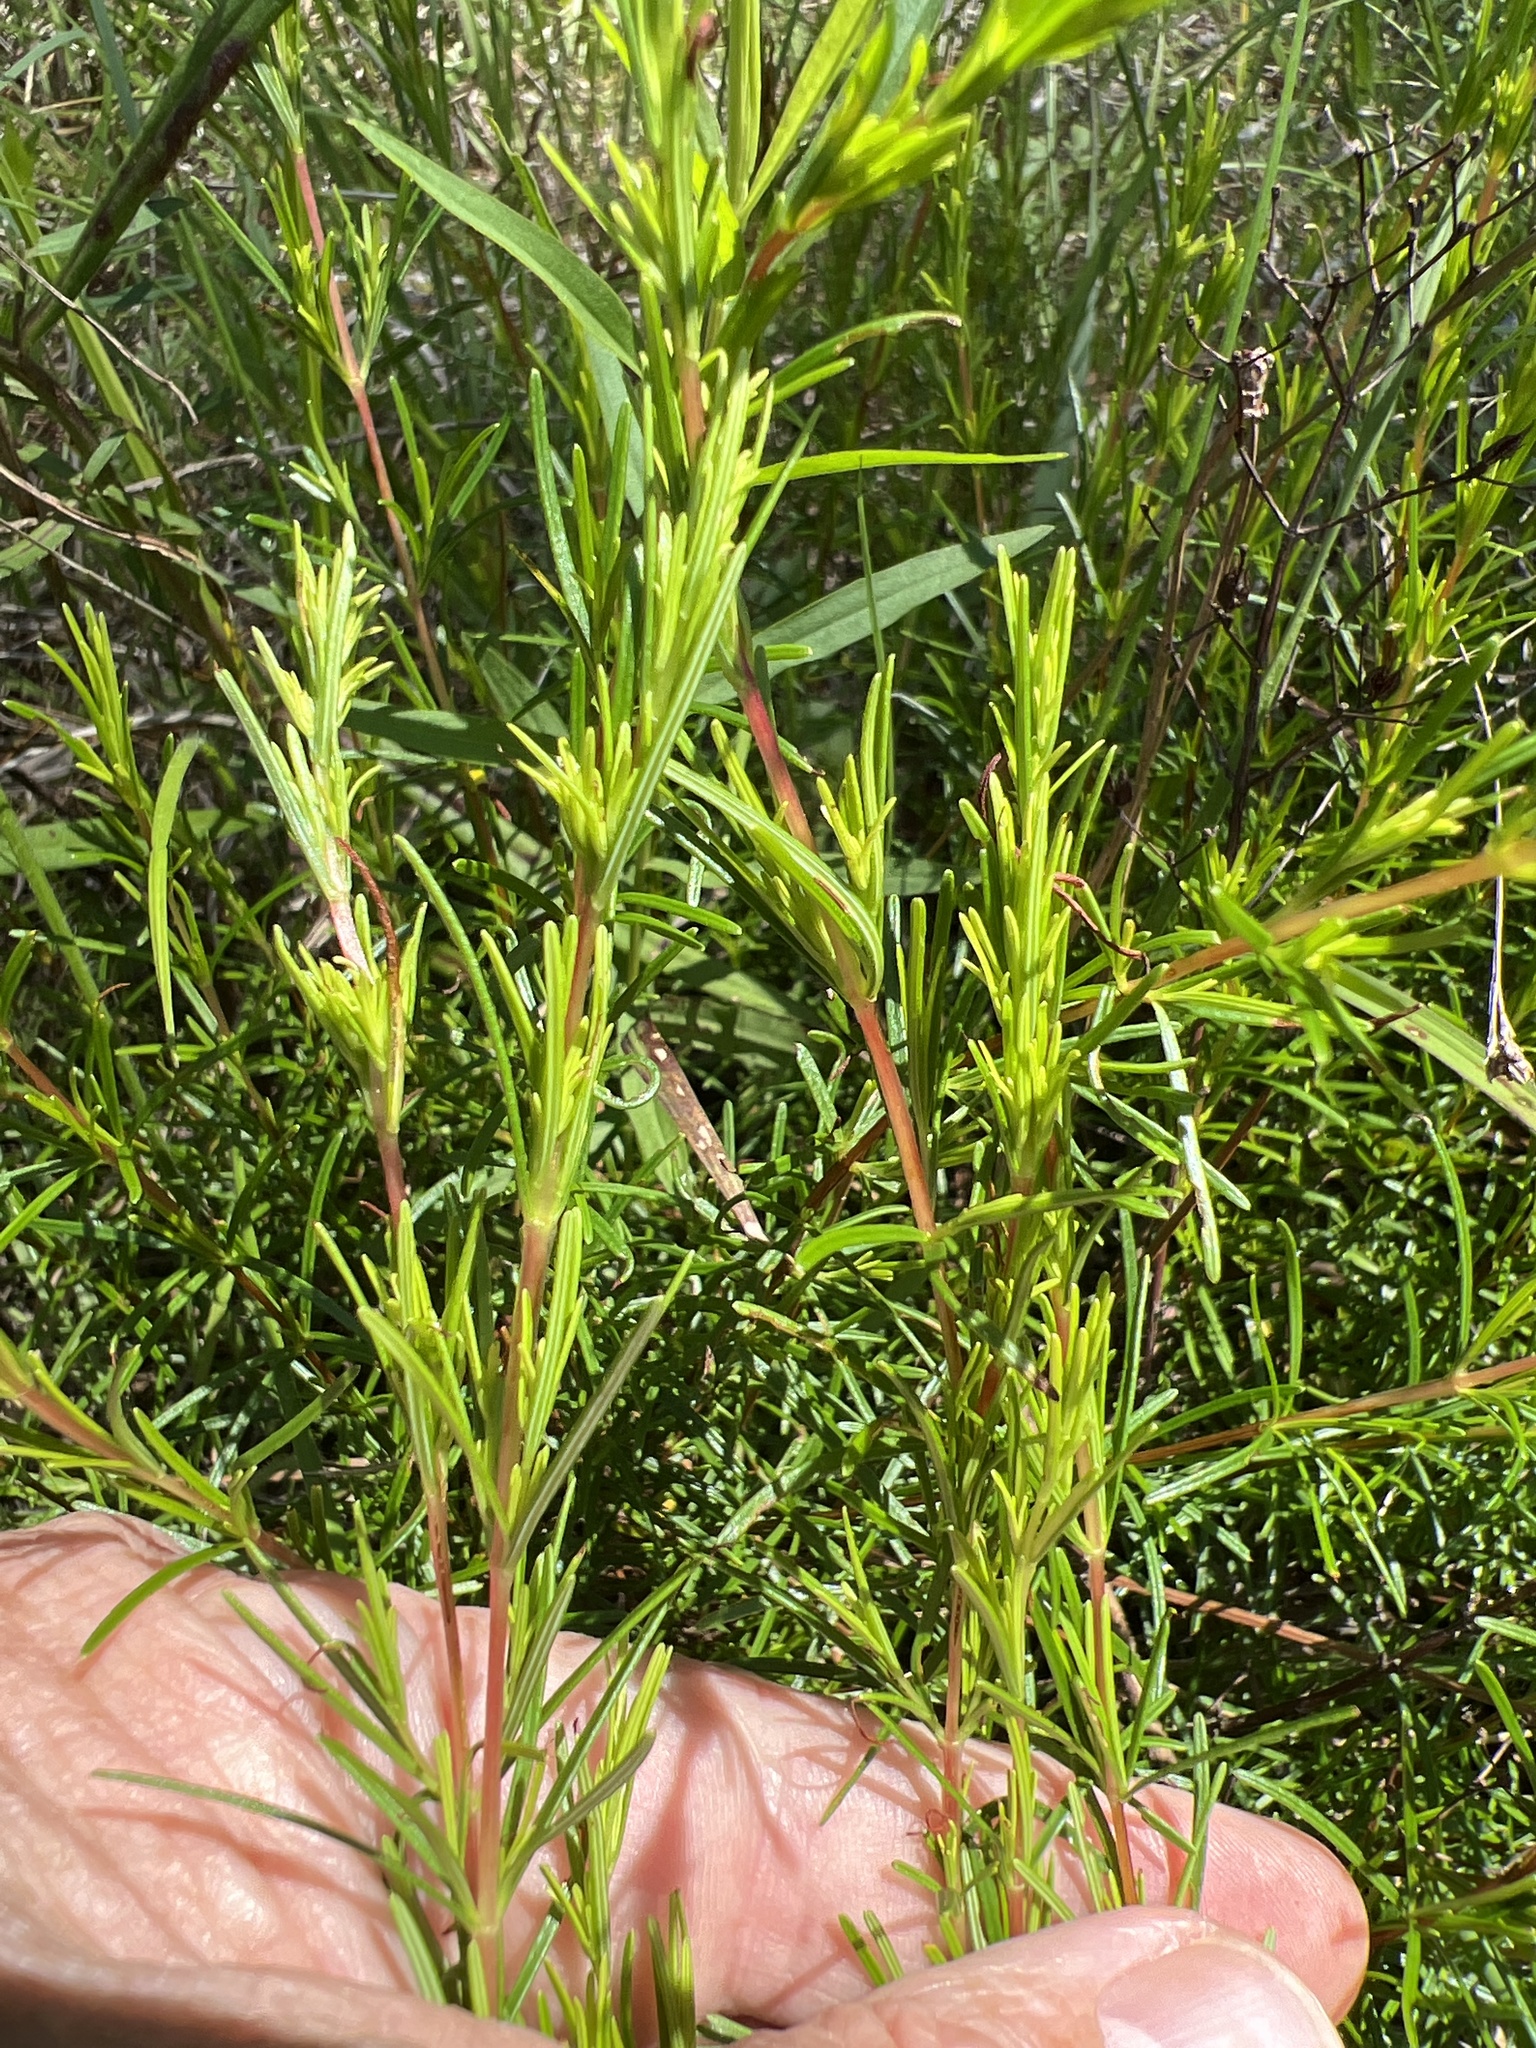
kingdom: Plantae
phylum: Tracheophyta
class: Magnoliopsida
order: Malpighiales
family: Hypericaceae
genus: Hypericum
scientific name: Hypericum lloydii
